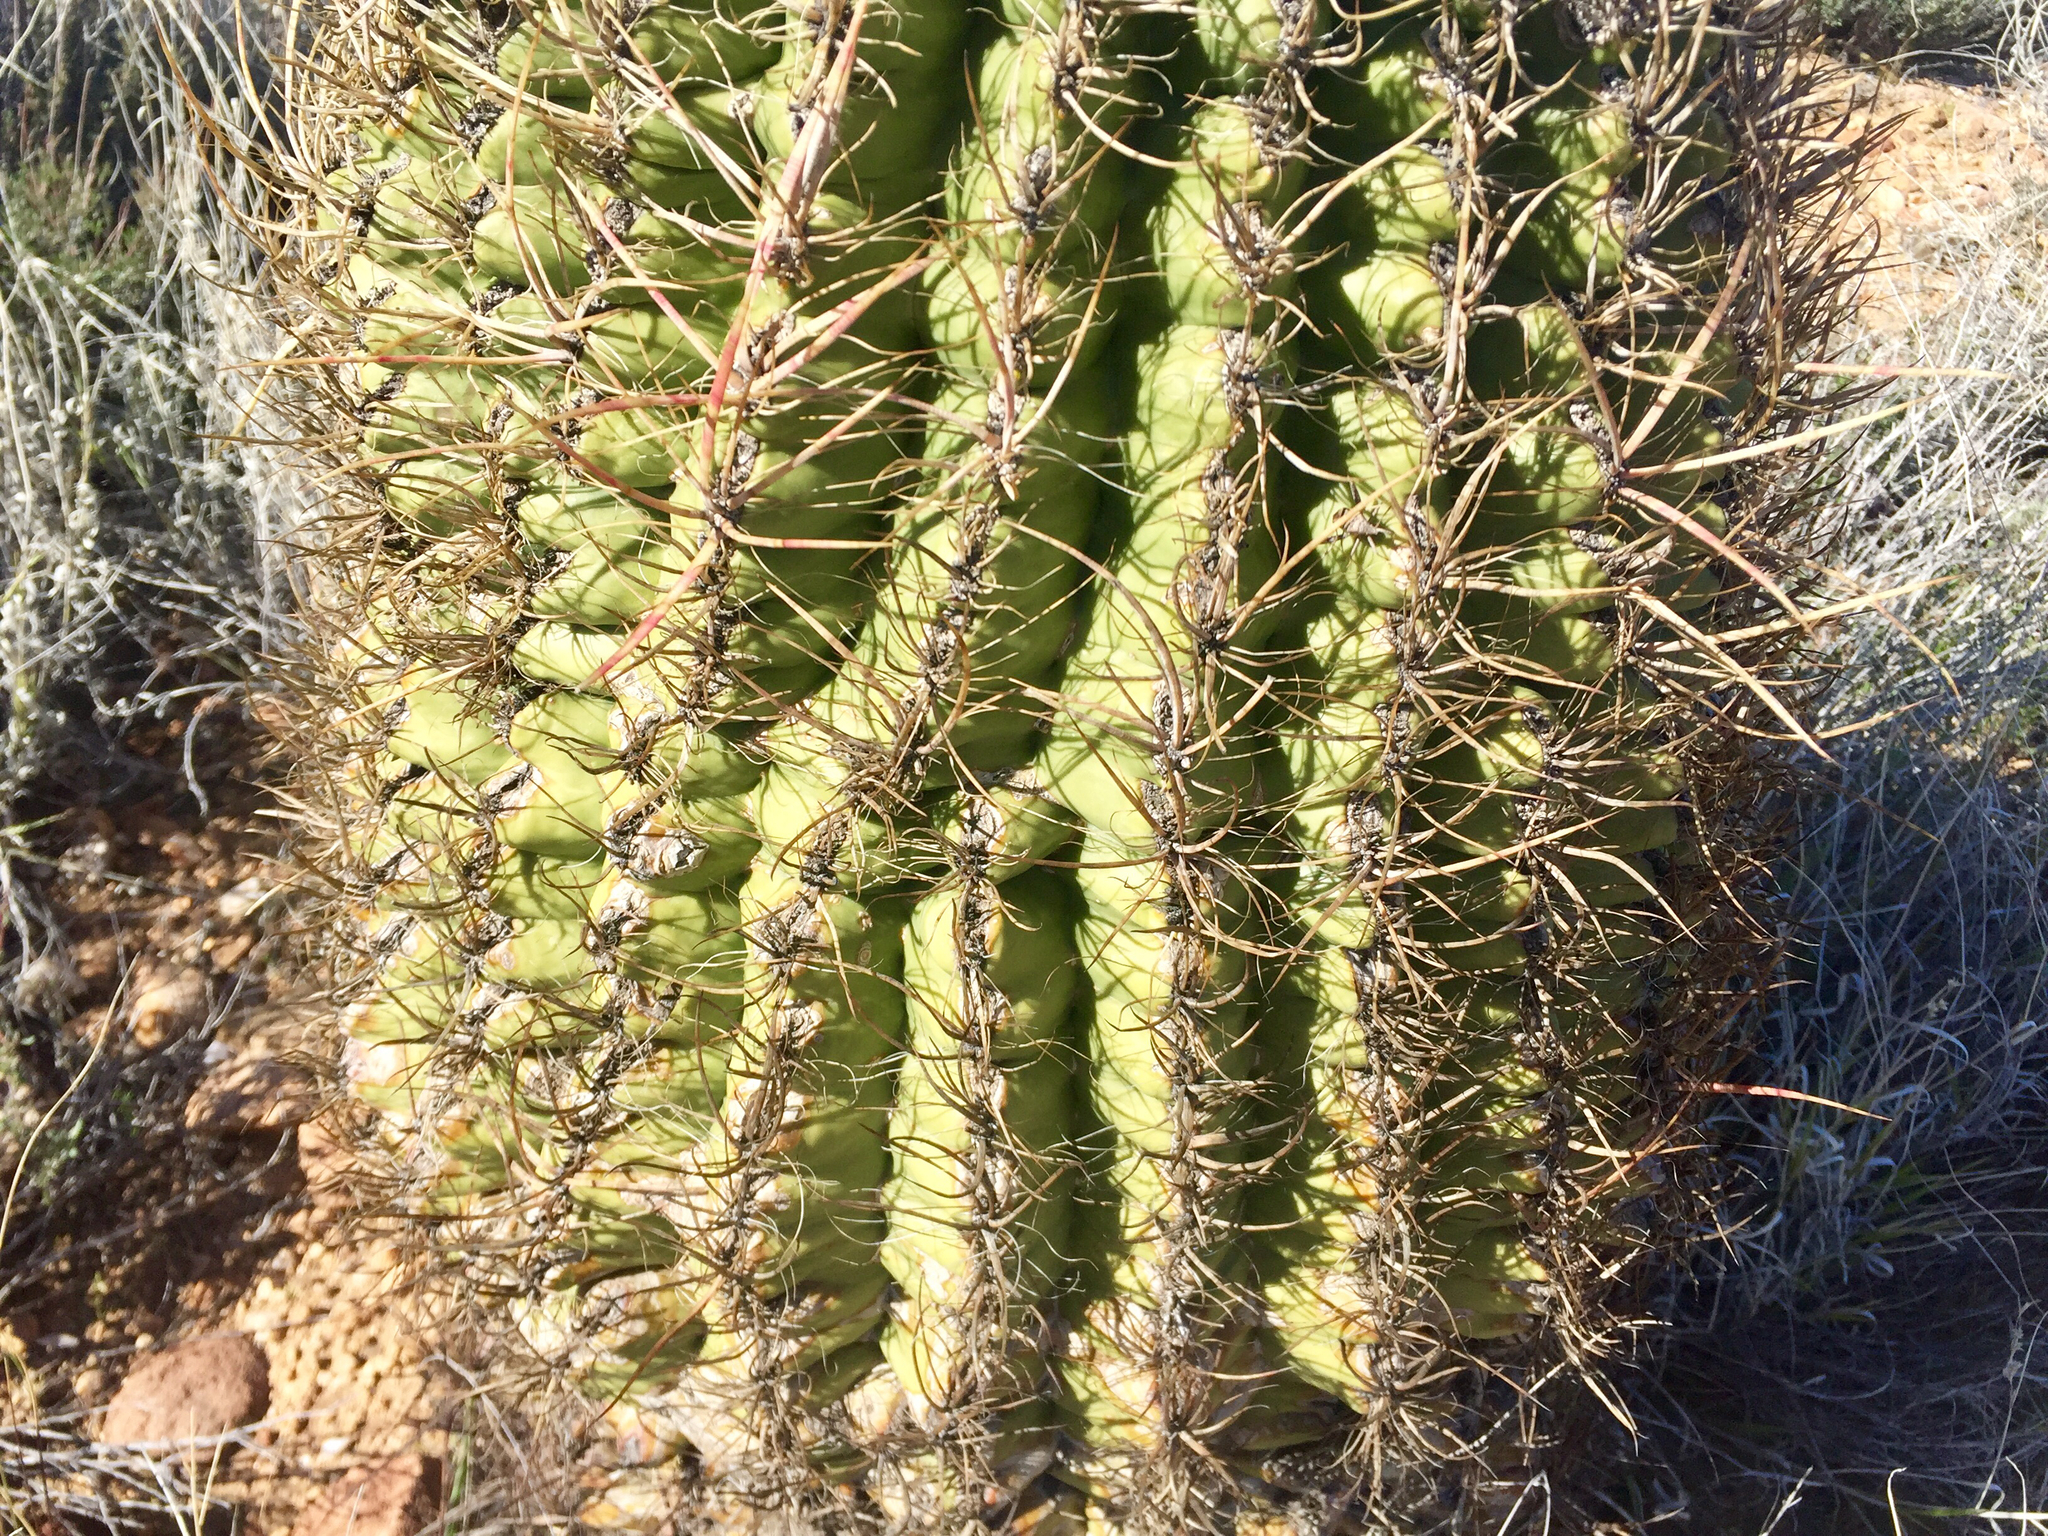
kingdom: Plantae
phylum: Tracheophyta
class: Magnoliopsida
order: Caryophyllales
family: Cactaceae
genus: Ferocactus
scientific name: Ferocactus cylindraceus
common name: California barrel cactus
